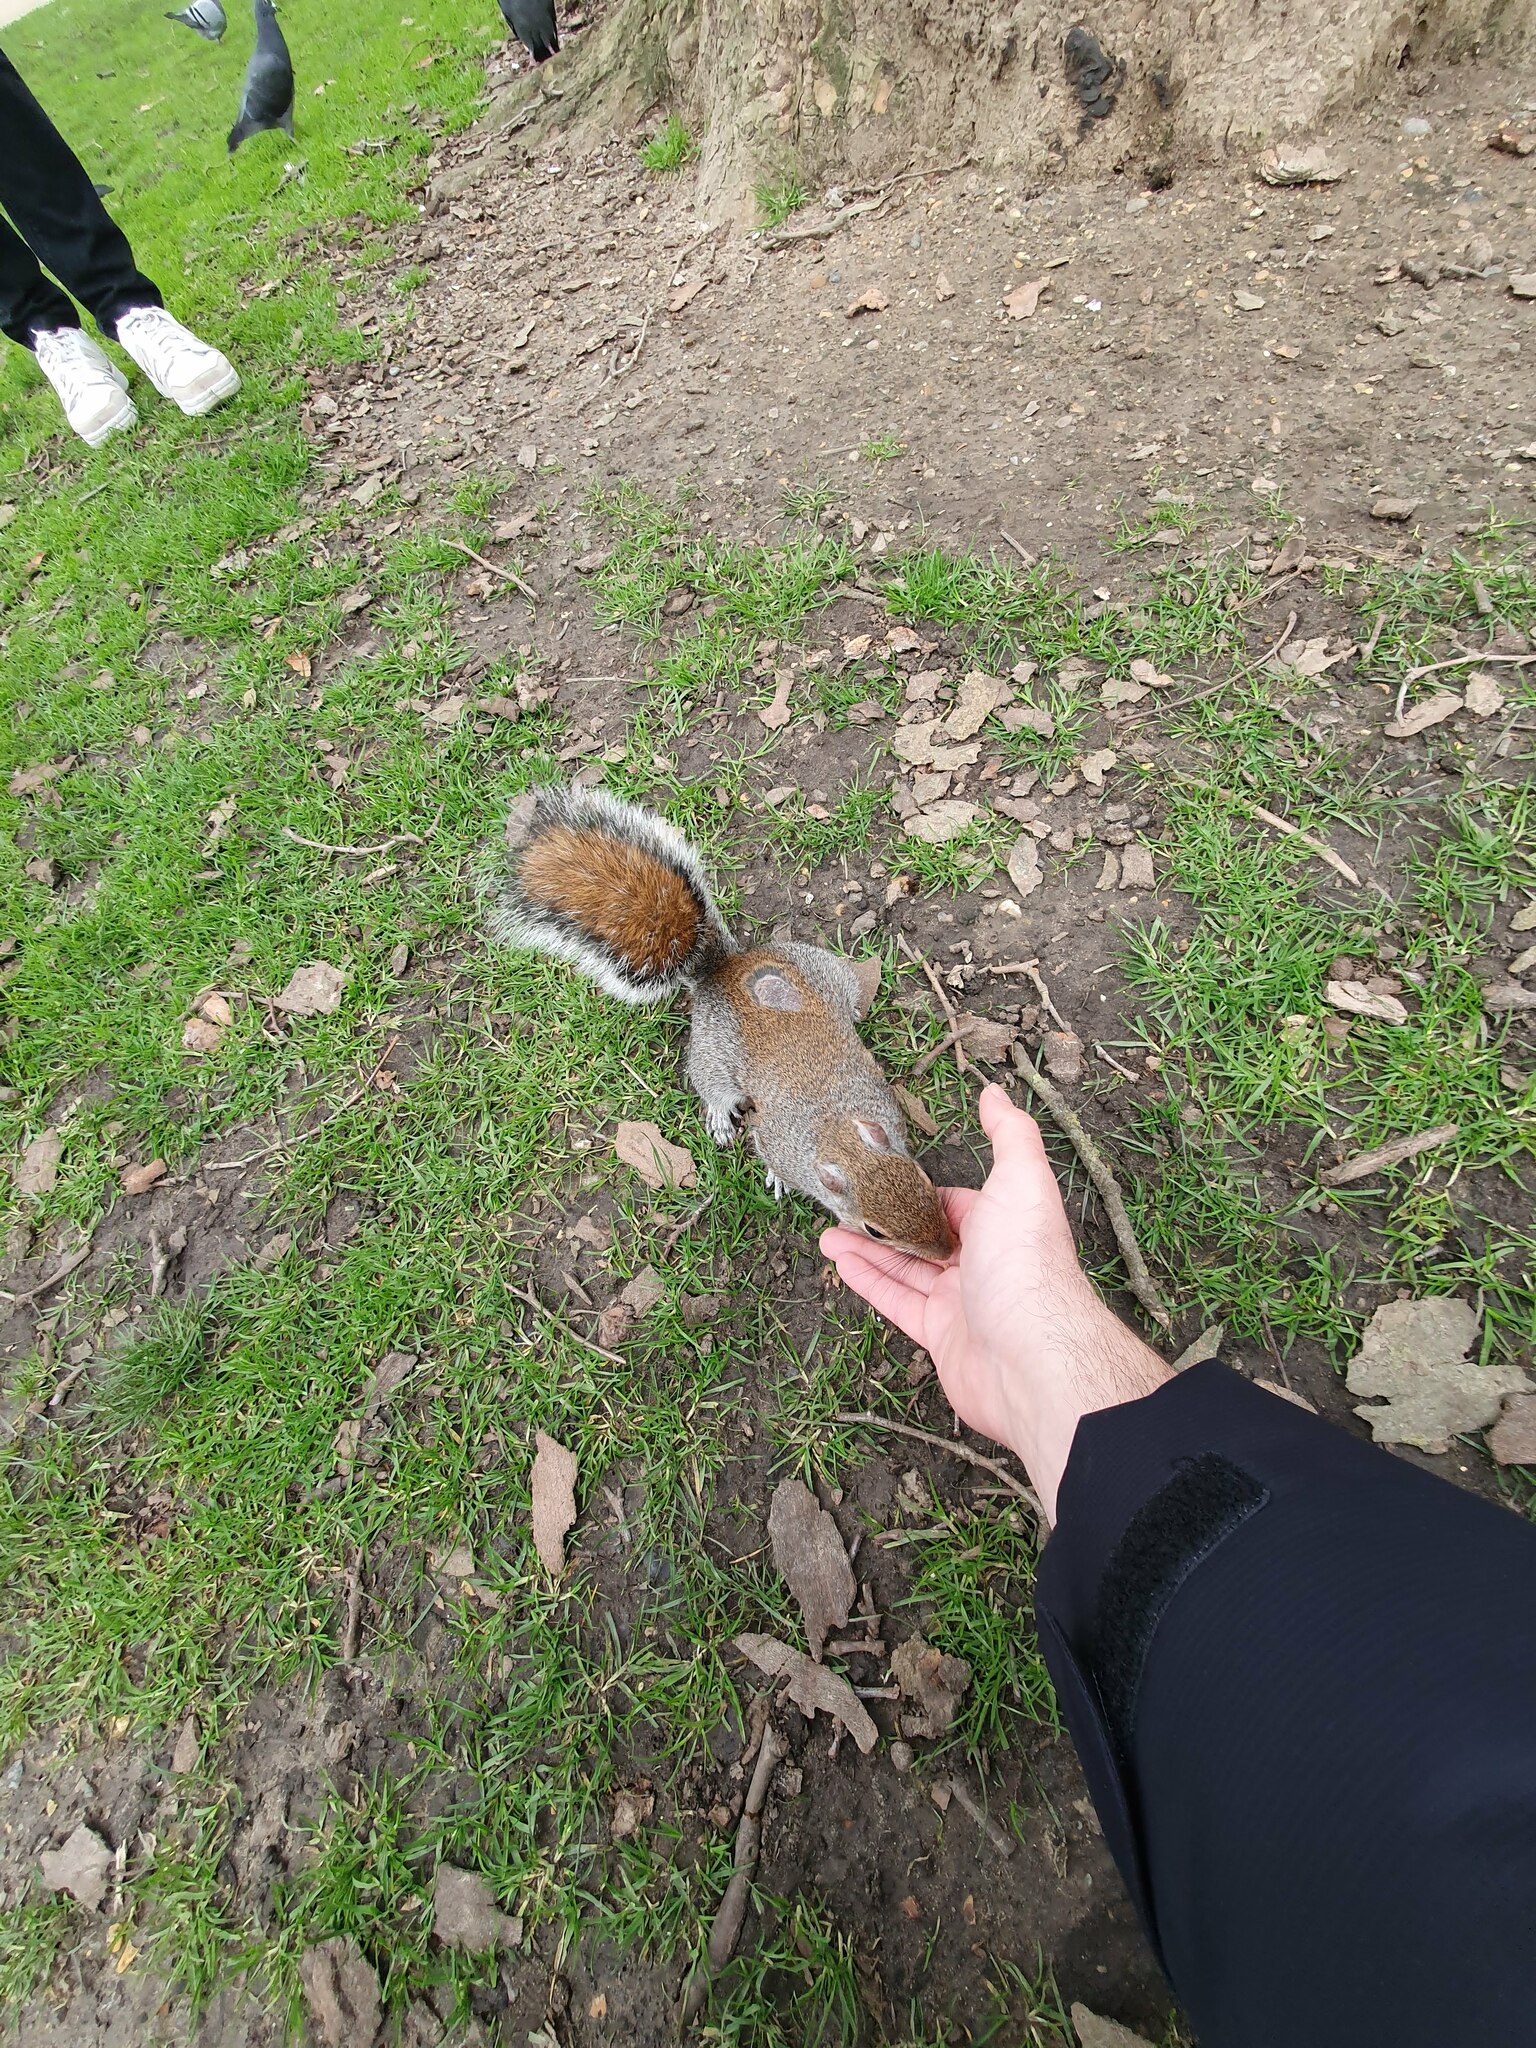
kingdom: Animalia
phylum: Chordata
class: Mammalia
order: Rodentia
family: Sciuridae
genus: Sciurus
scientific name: Sciurus carolinensis
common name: Eastern gray squirrel
